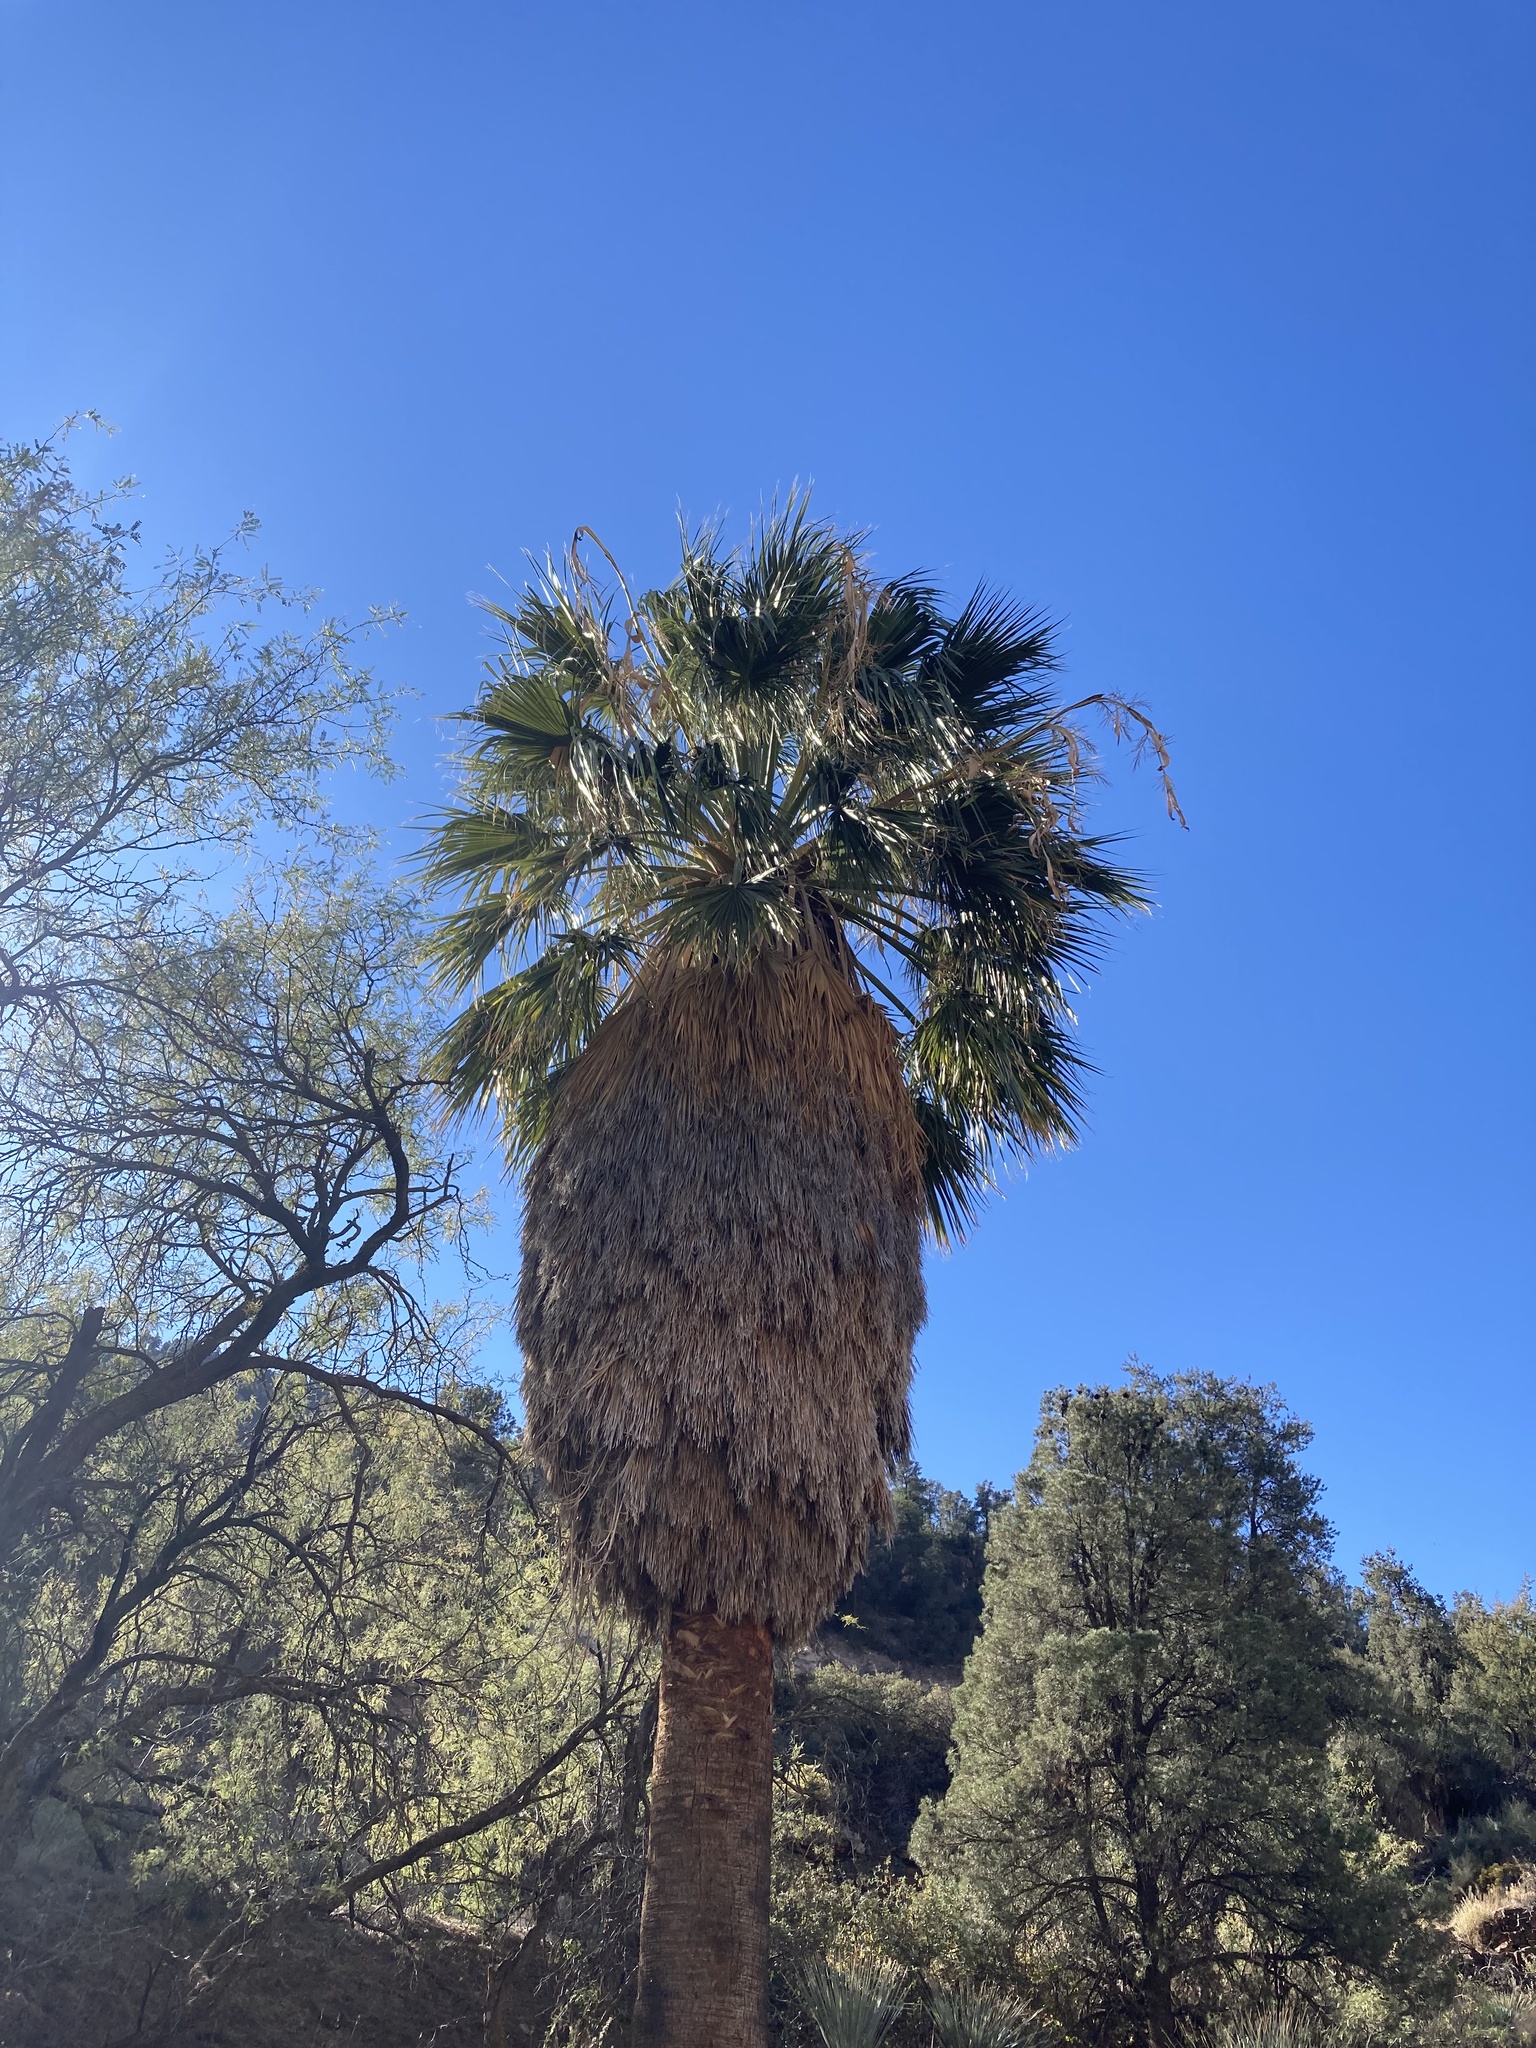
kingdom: Plantae
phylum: Tracheophyta
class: Liliopsida
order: Arecales
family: Arecaceae
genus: Washingtonia
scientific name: Washingtonia filifera
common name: California fan palm
